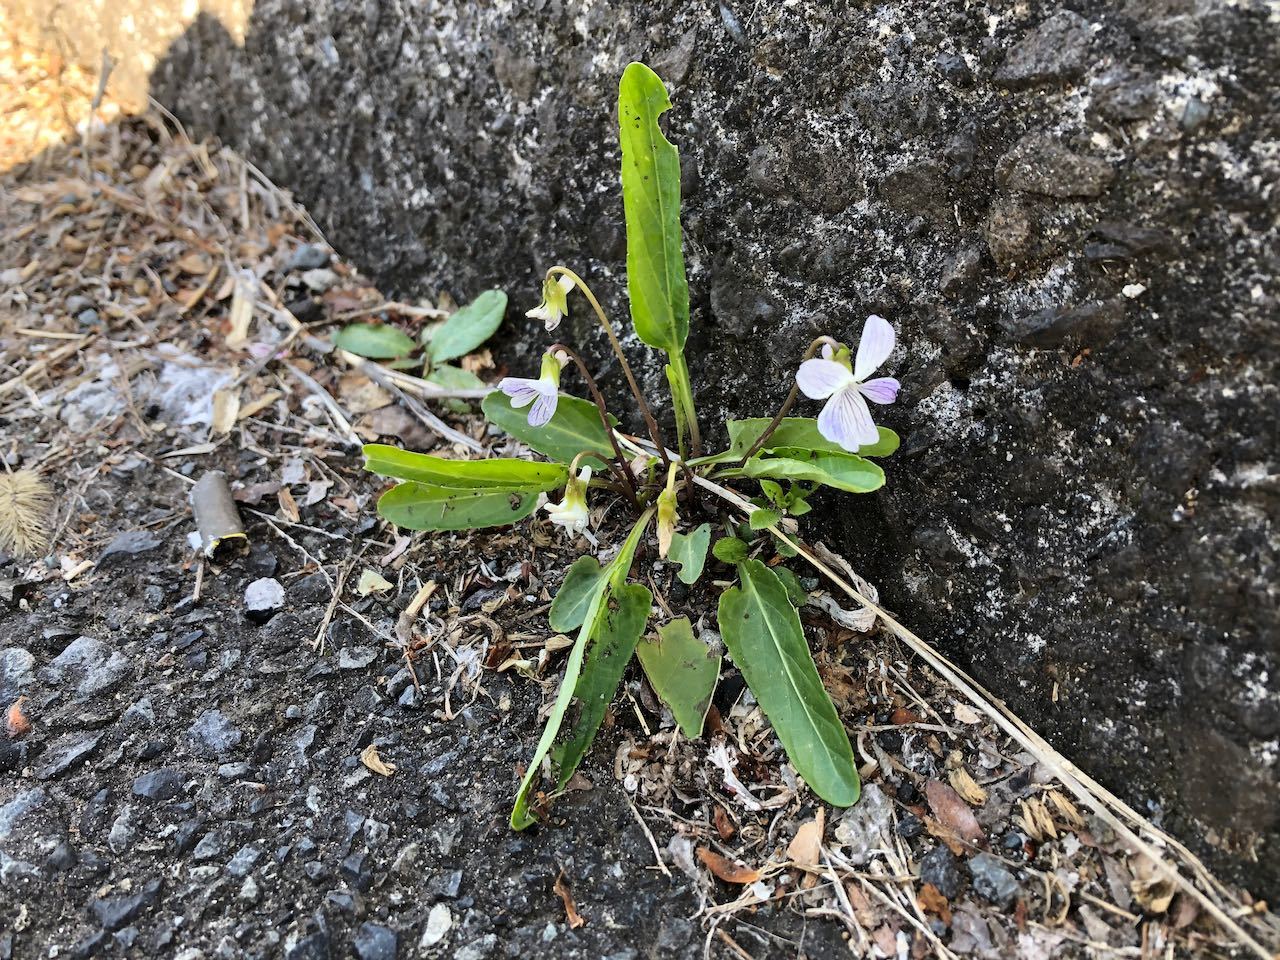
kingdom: Plantae
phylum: Tracheophyta
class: Magnoliopsida
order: Malpighiales
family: Violaceae
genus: Viola
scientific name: Viola betonicifolia
